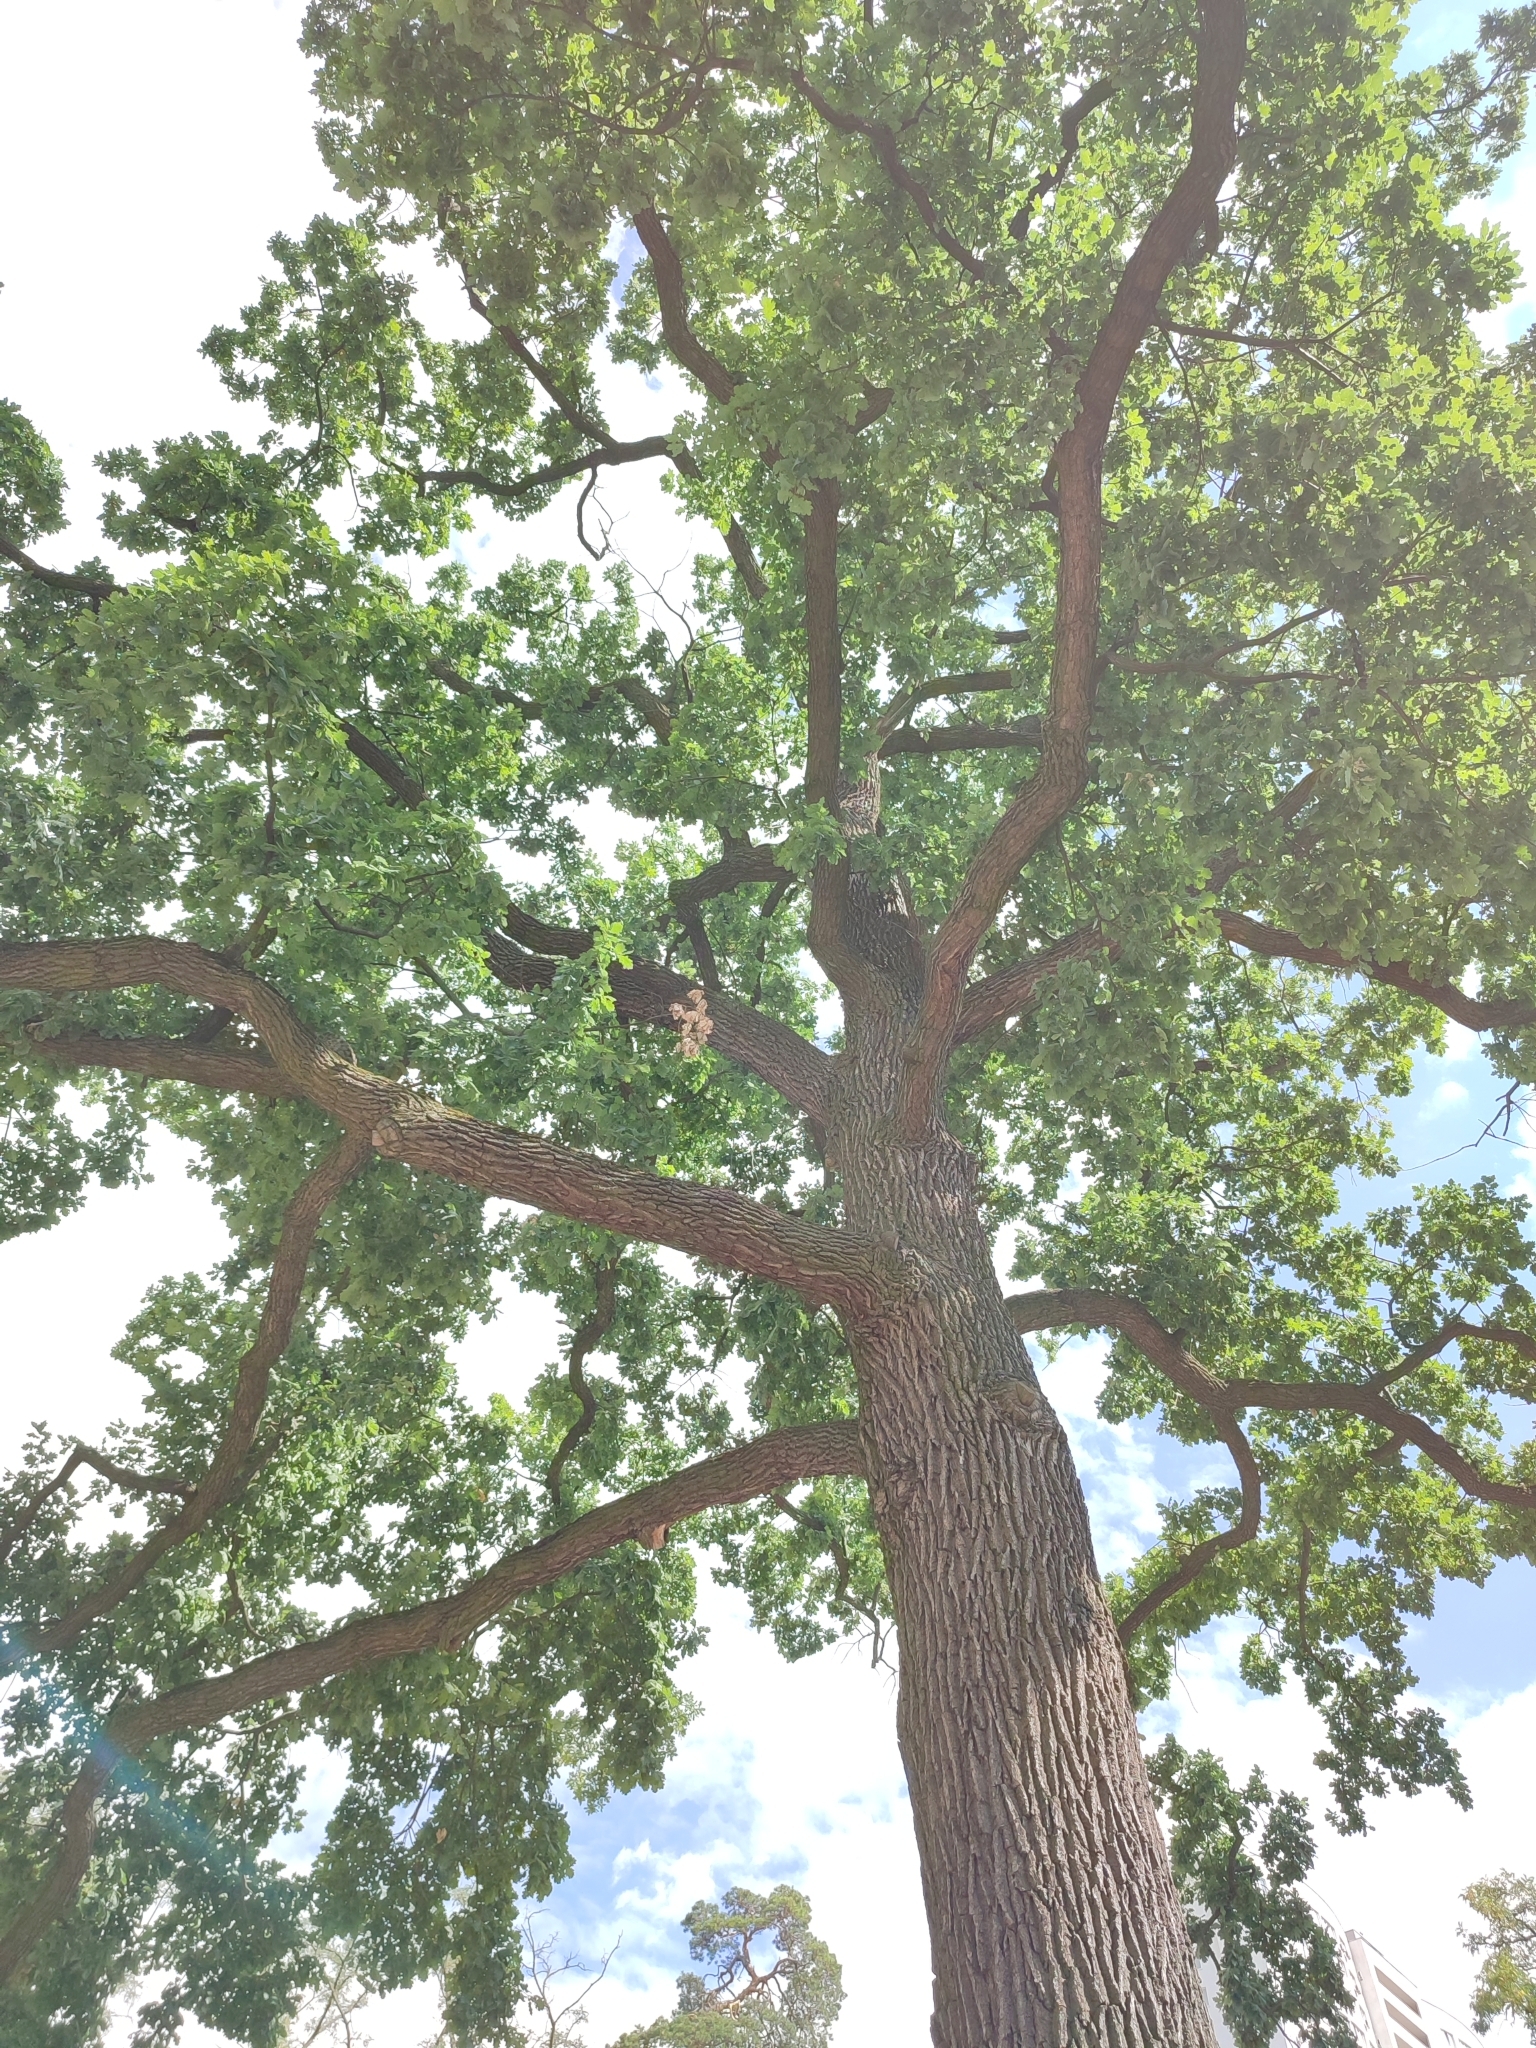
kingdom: Plantae
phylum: Tracheophyta
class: Magnoliopsida
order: Fagales
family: Fagaceae
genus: Quercus
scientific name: Quercus robur
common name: Pedunculate oak
